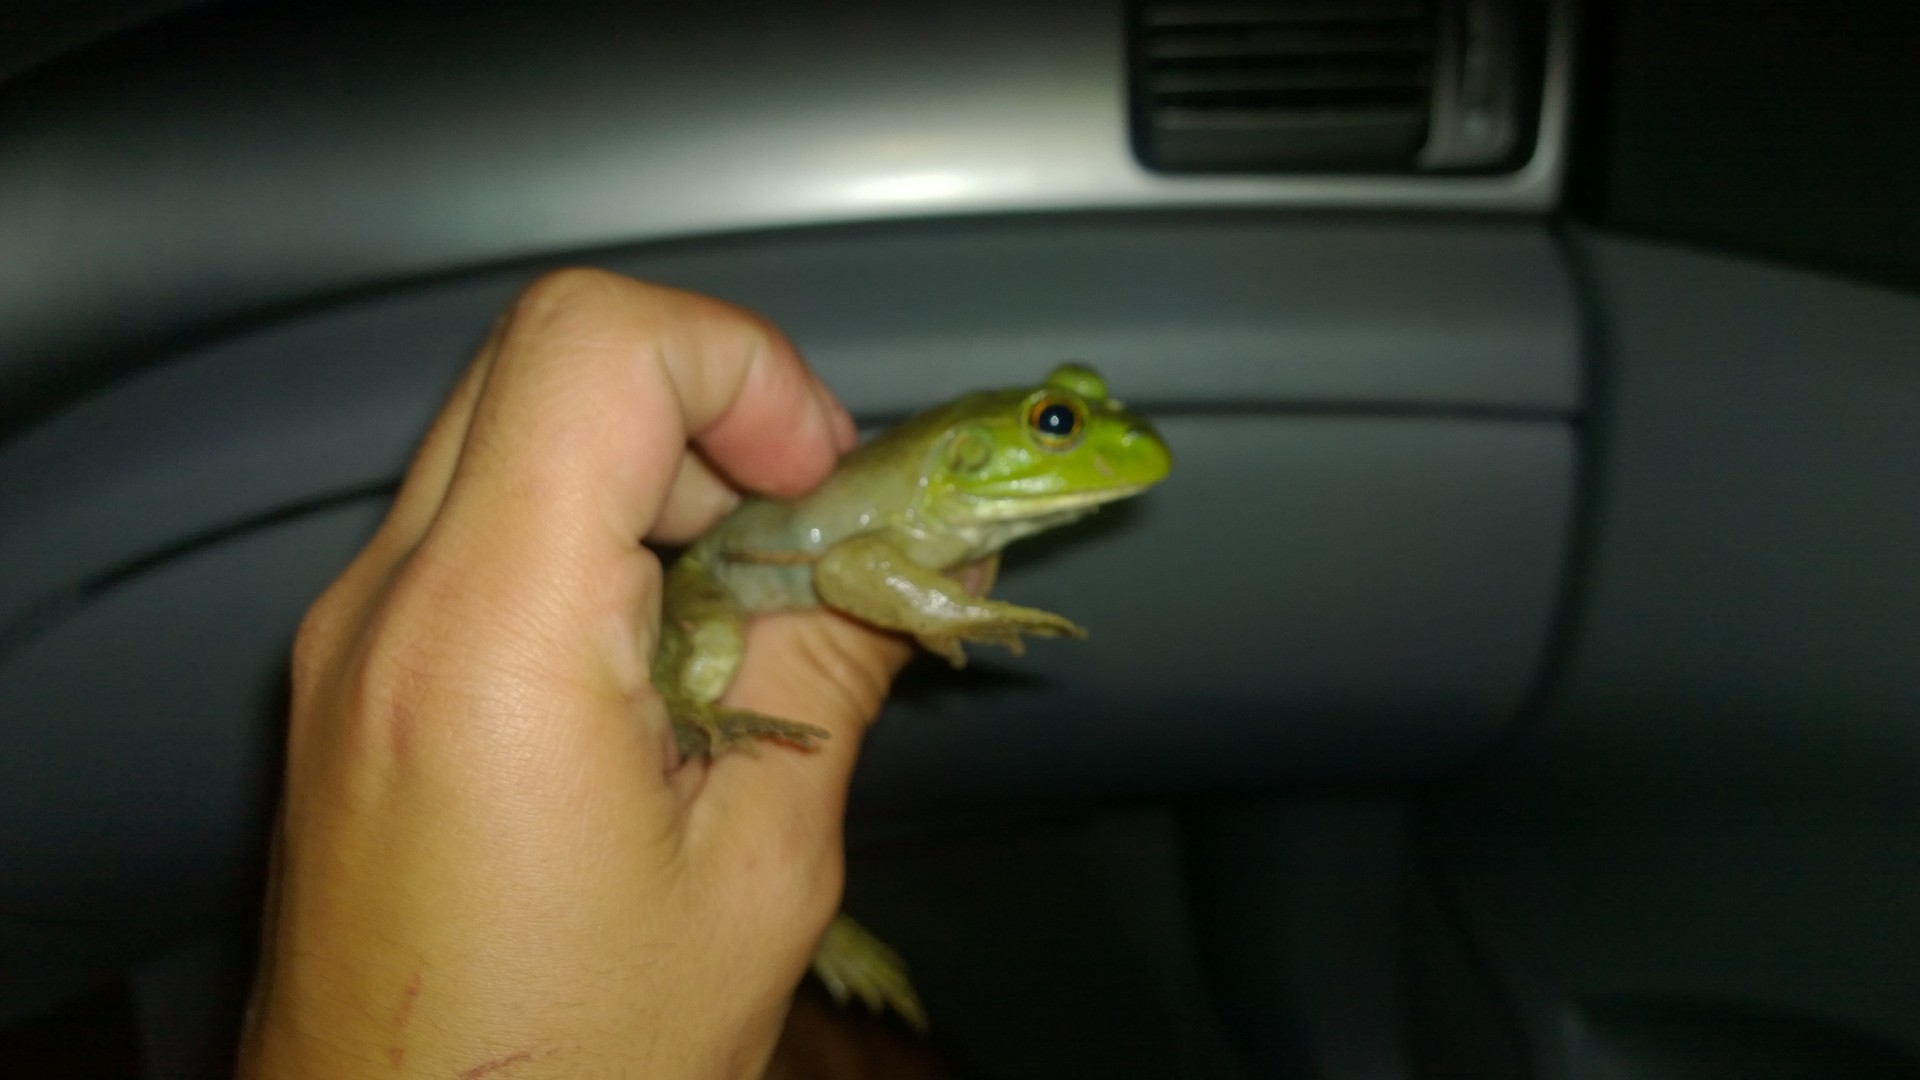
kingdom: Animalia
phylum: Chordata
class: Amphibia
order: Anura
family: Ranidae
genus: Lithobates
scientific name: Lithobates catesbeianus
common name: American bullfrog
